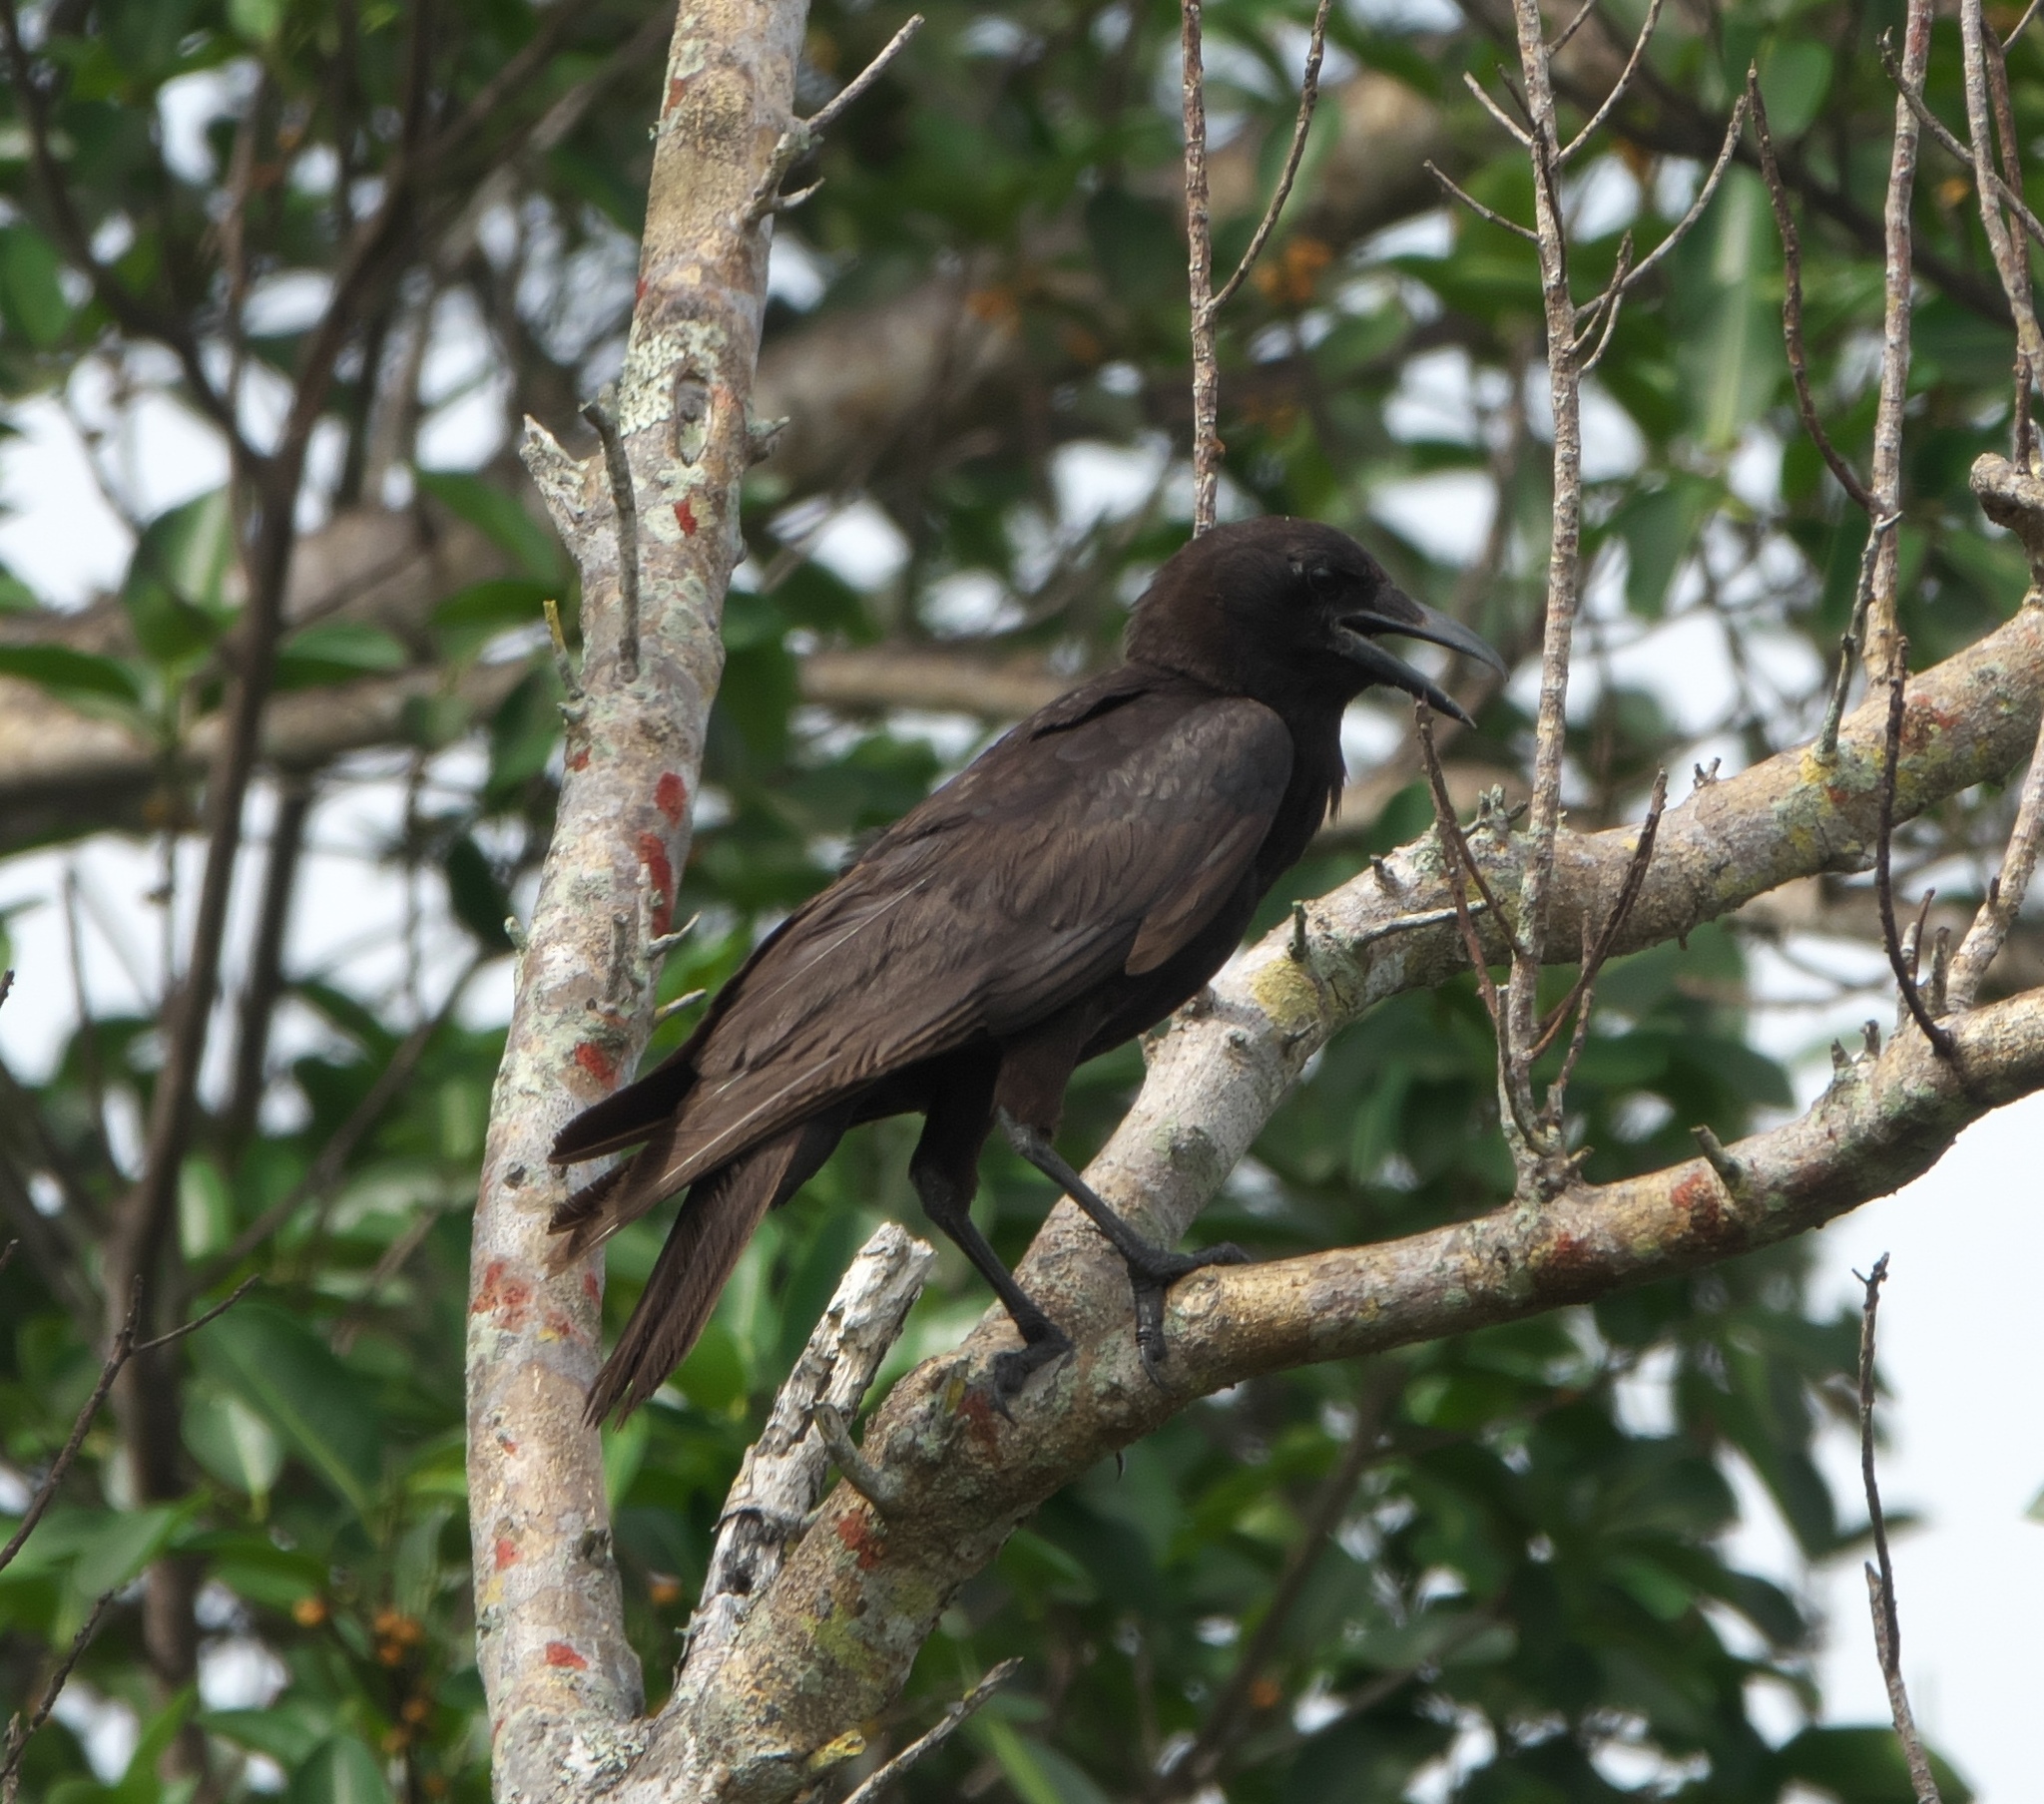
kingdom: Animalia
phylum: Chordata
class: Aves
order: Passeriformes
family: Corvidae
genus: Corvus
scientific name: Corvus brachyrhynchos
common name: American crow
